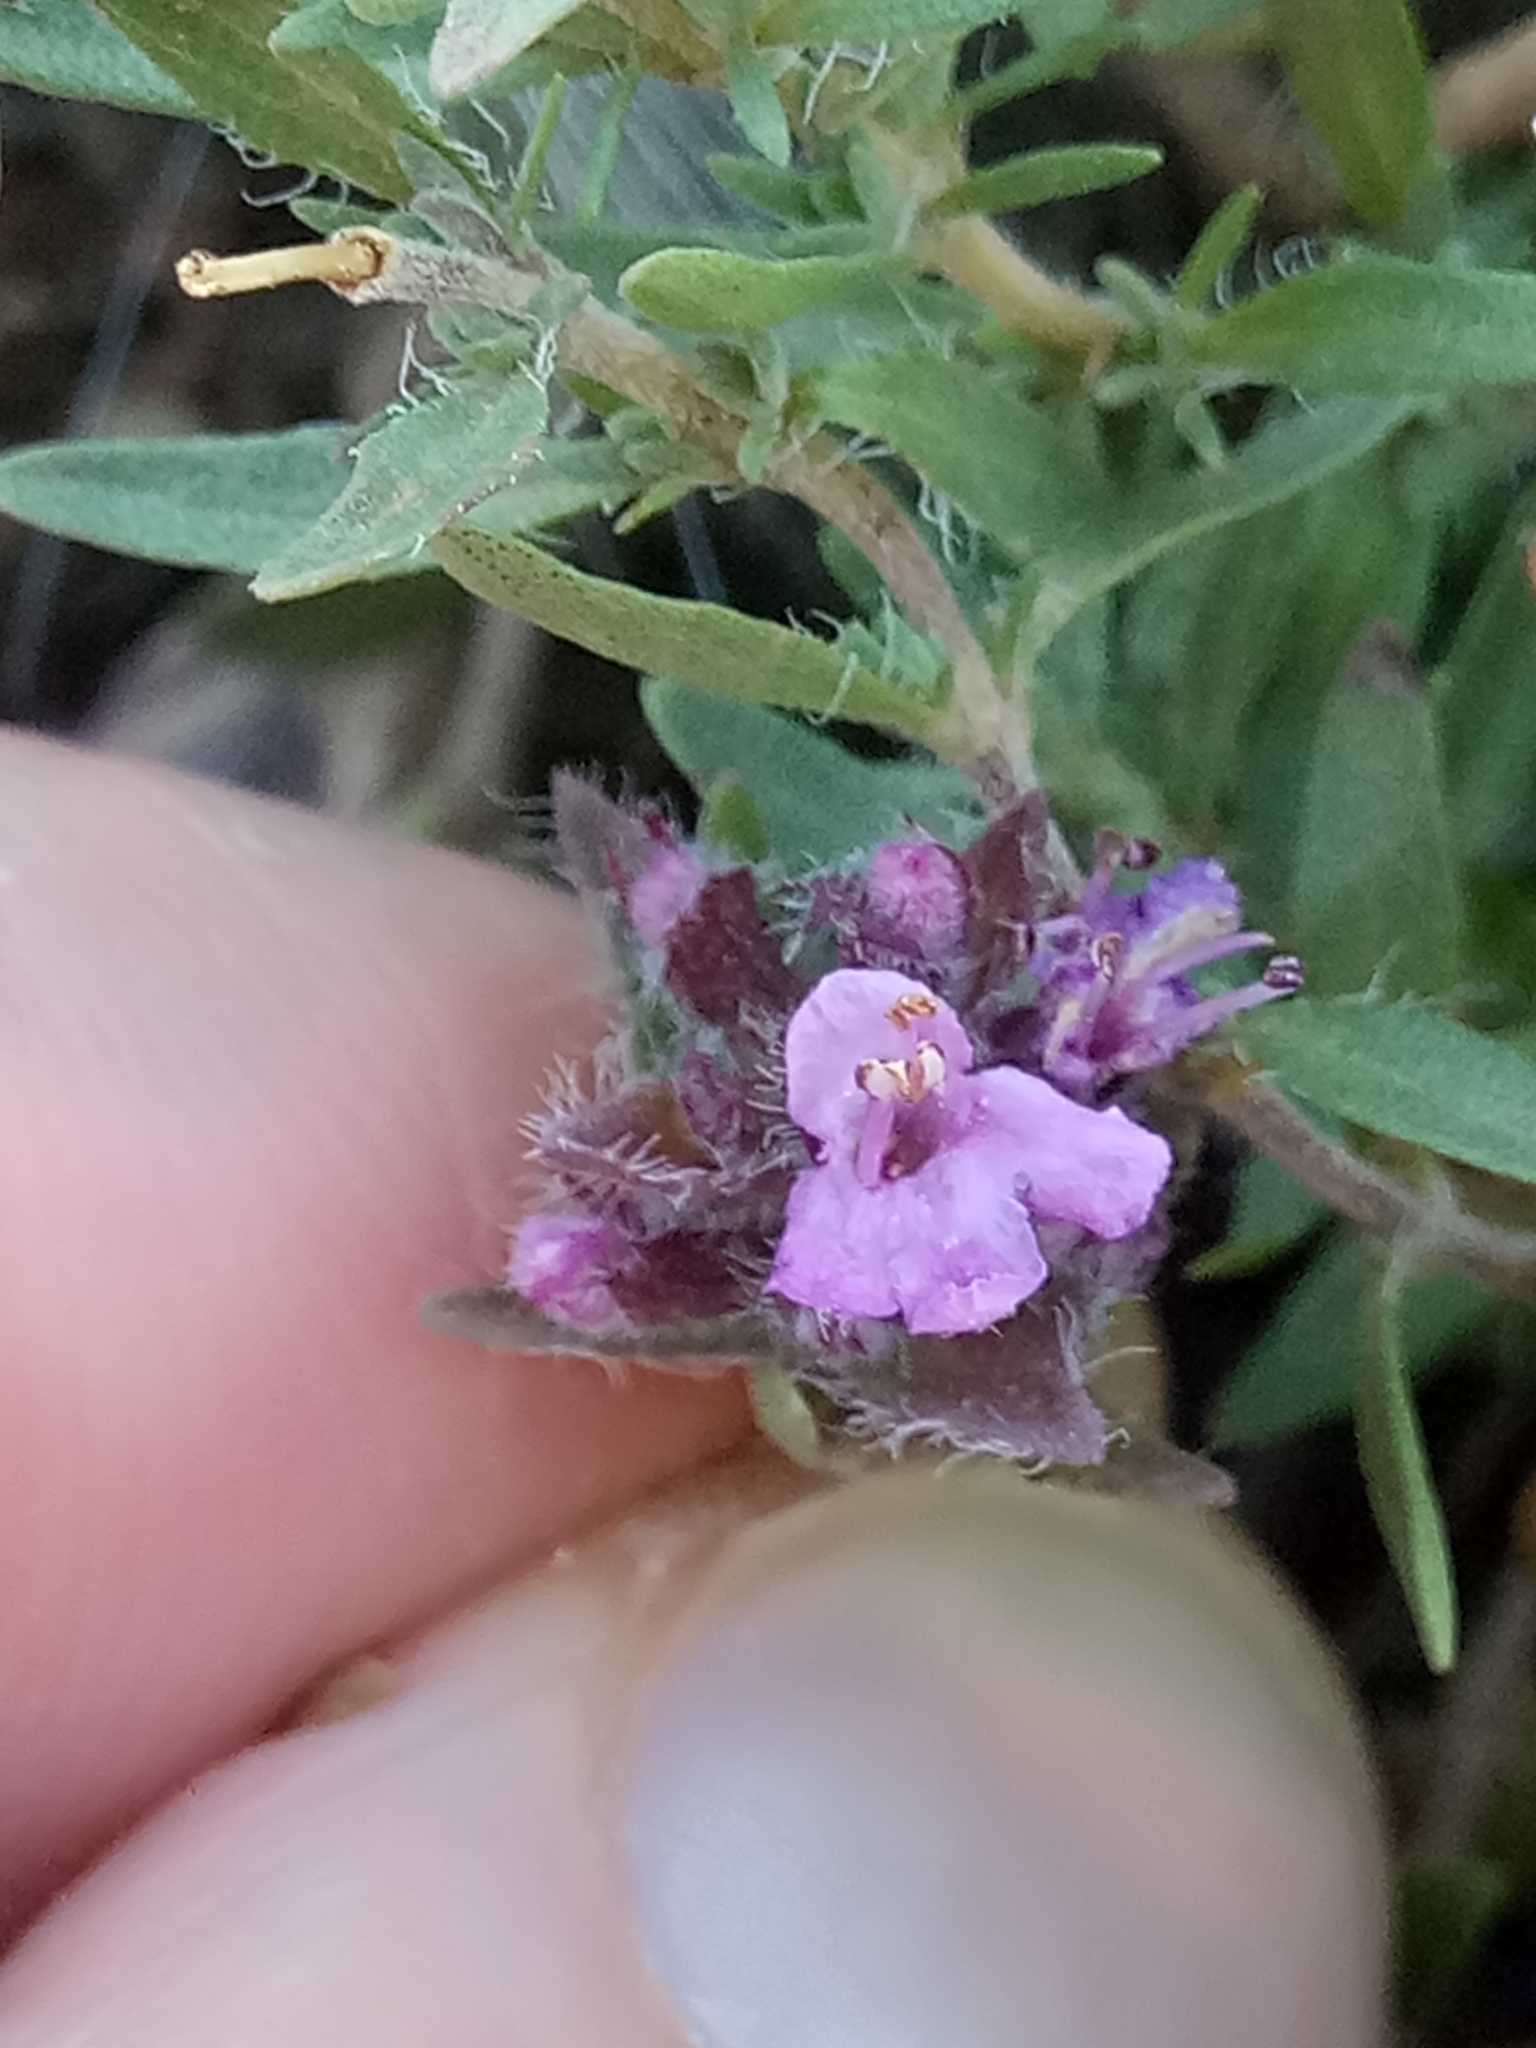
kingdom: Plantae
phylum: Tracheophyta
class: Magnoliopsida
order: Lamiales
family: Lamiaceae
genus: Thymus
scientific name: Thymus numidicus
